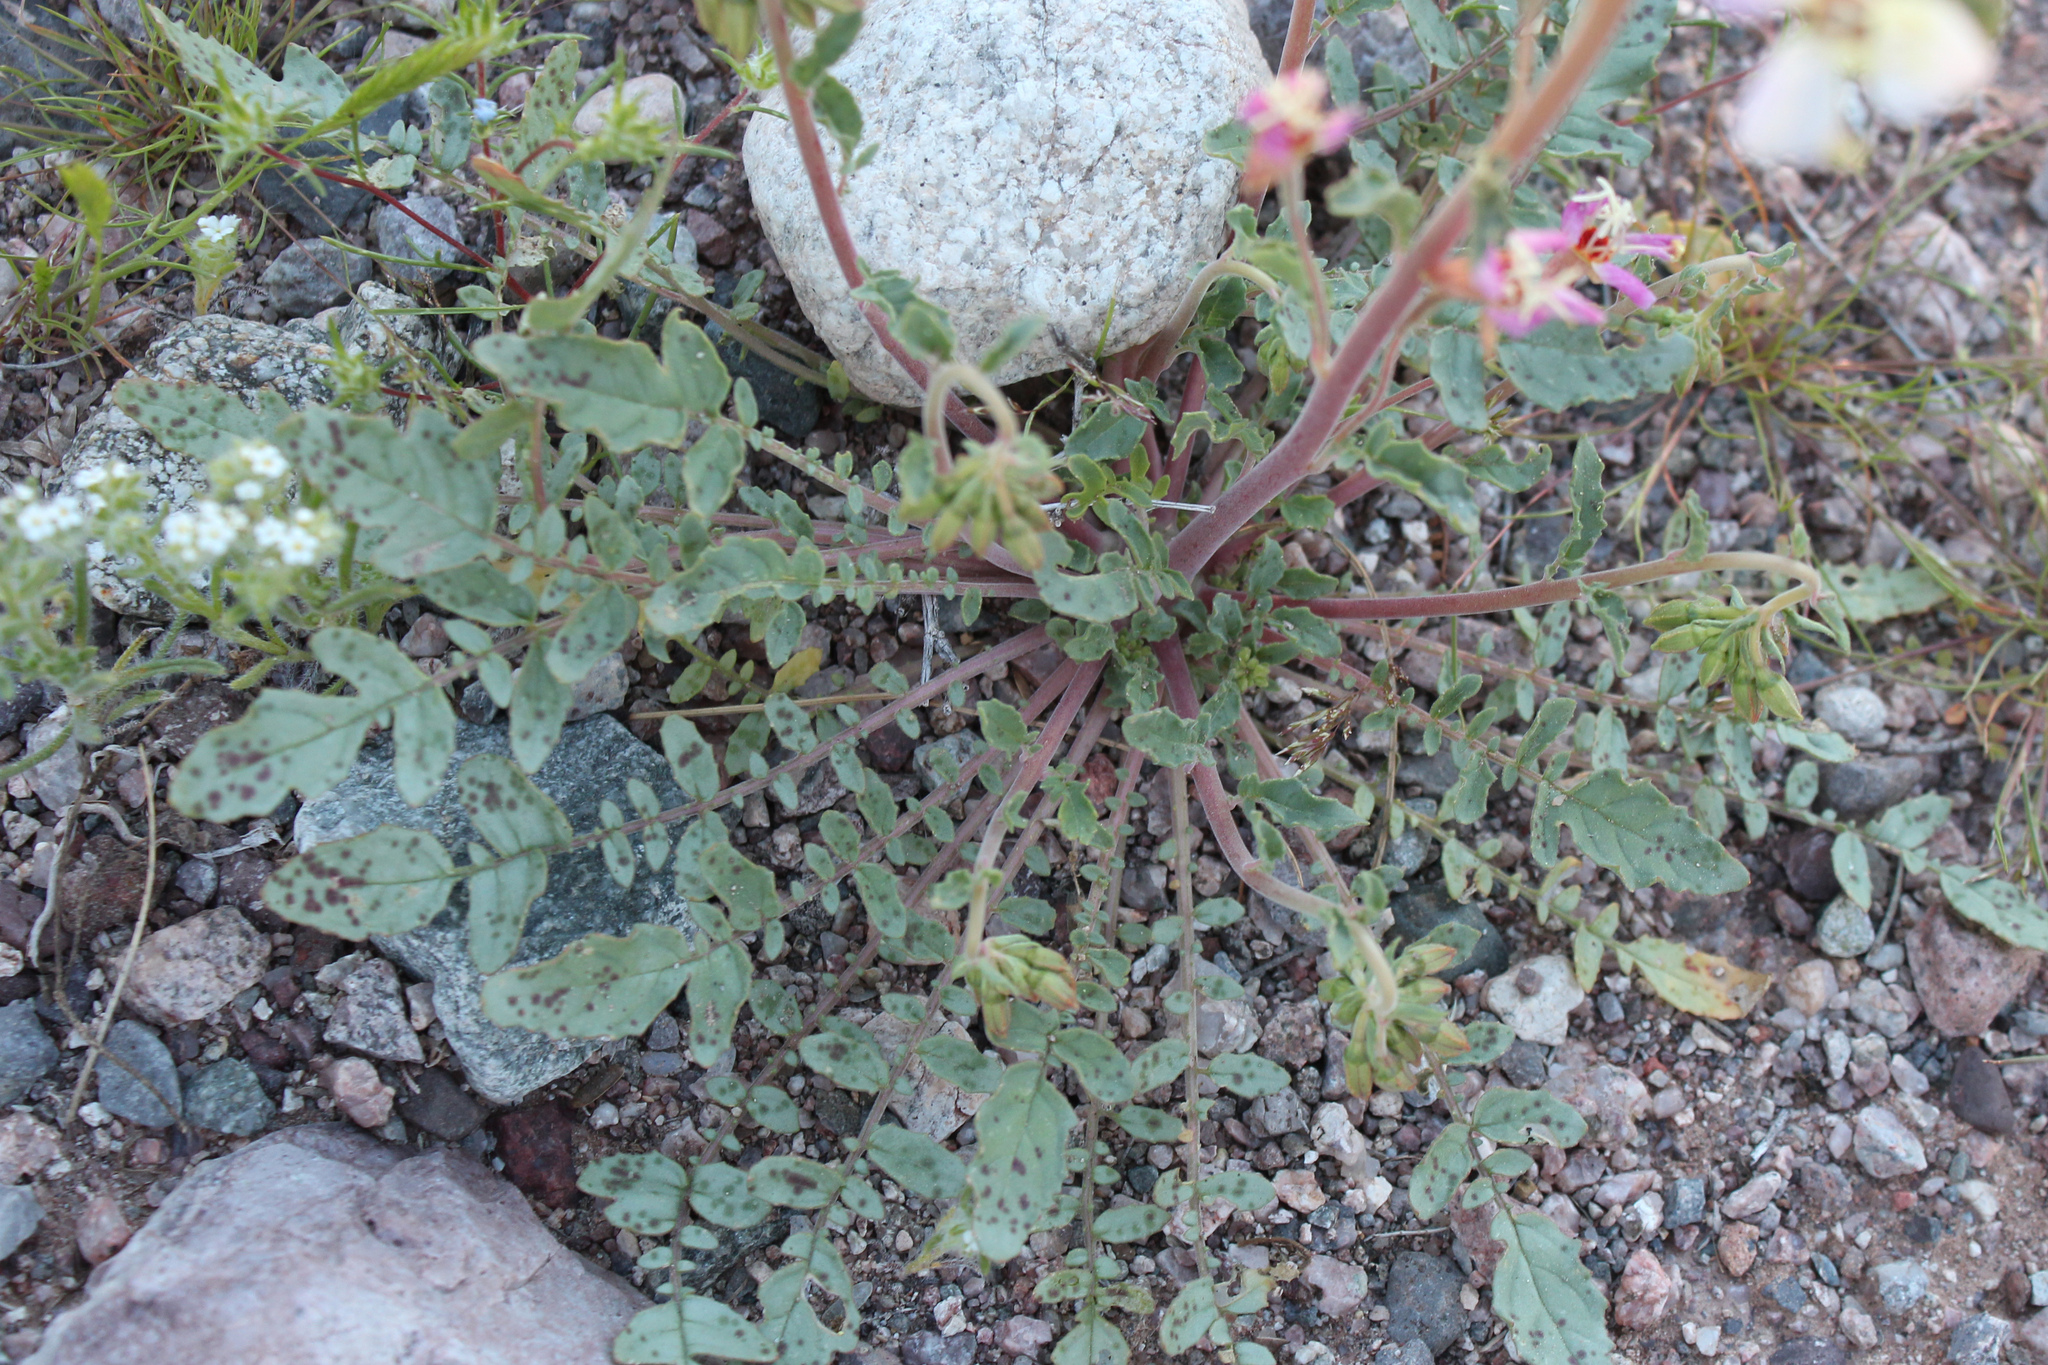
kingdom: Plantae
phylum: Tracheophyta
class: Magnoliopsida
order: Myrtales
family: Onagraceae
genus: Chylismia
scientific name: Chylismia claviformis
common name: Browneyes
